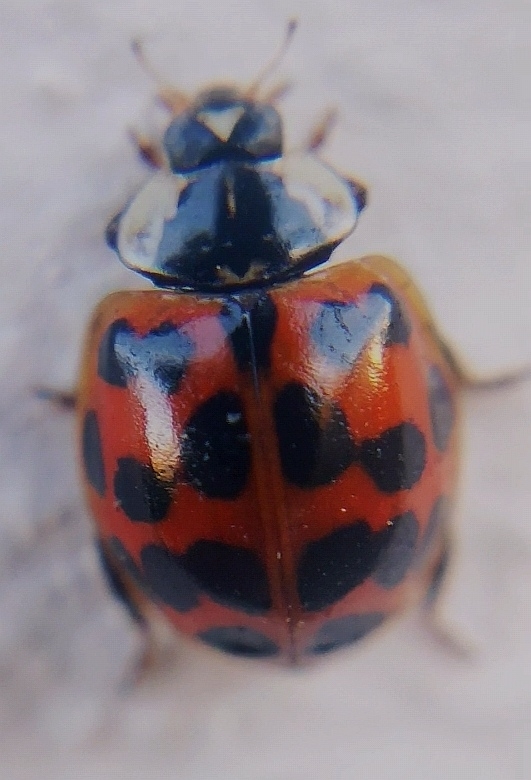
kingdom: Animalia
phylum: Arthropoda
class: Insecta
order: Coleoptera
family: Coccinellidae
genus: Harmonia
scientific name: Harmonia axyridis
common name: Harlequin ladybird
